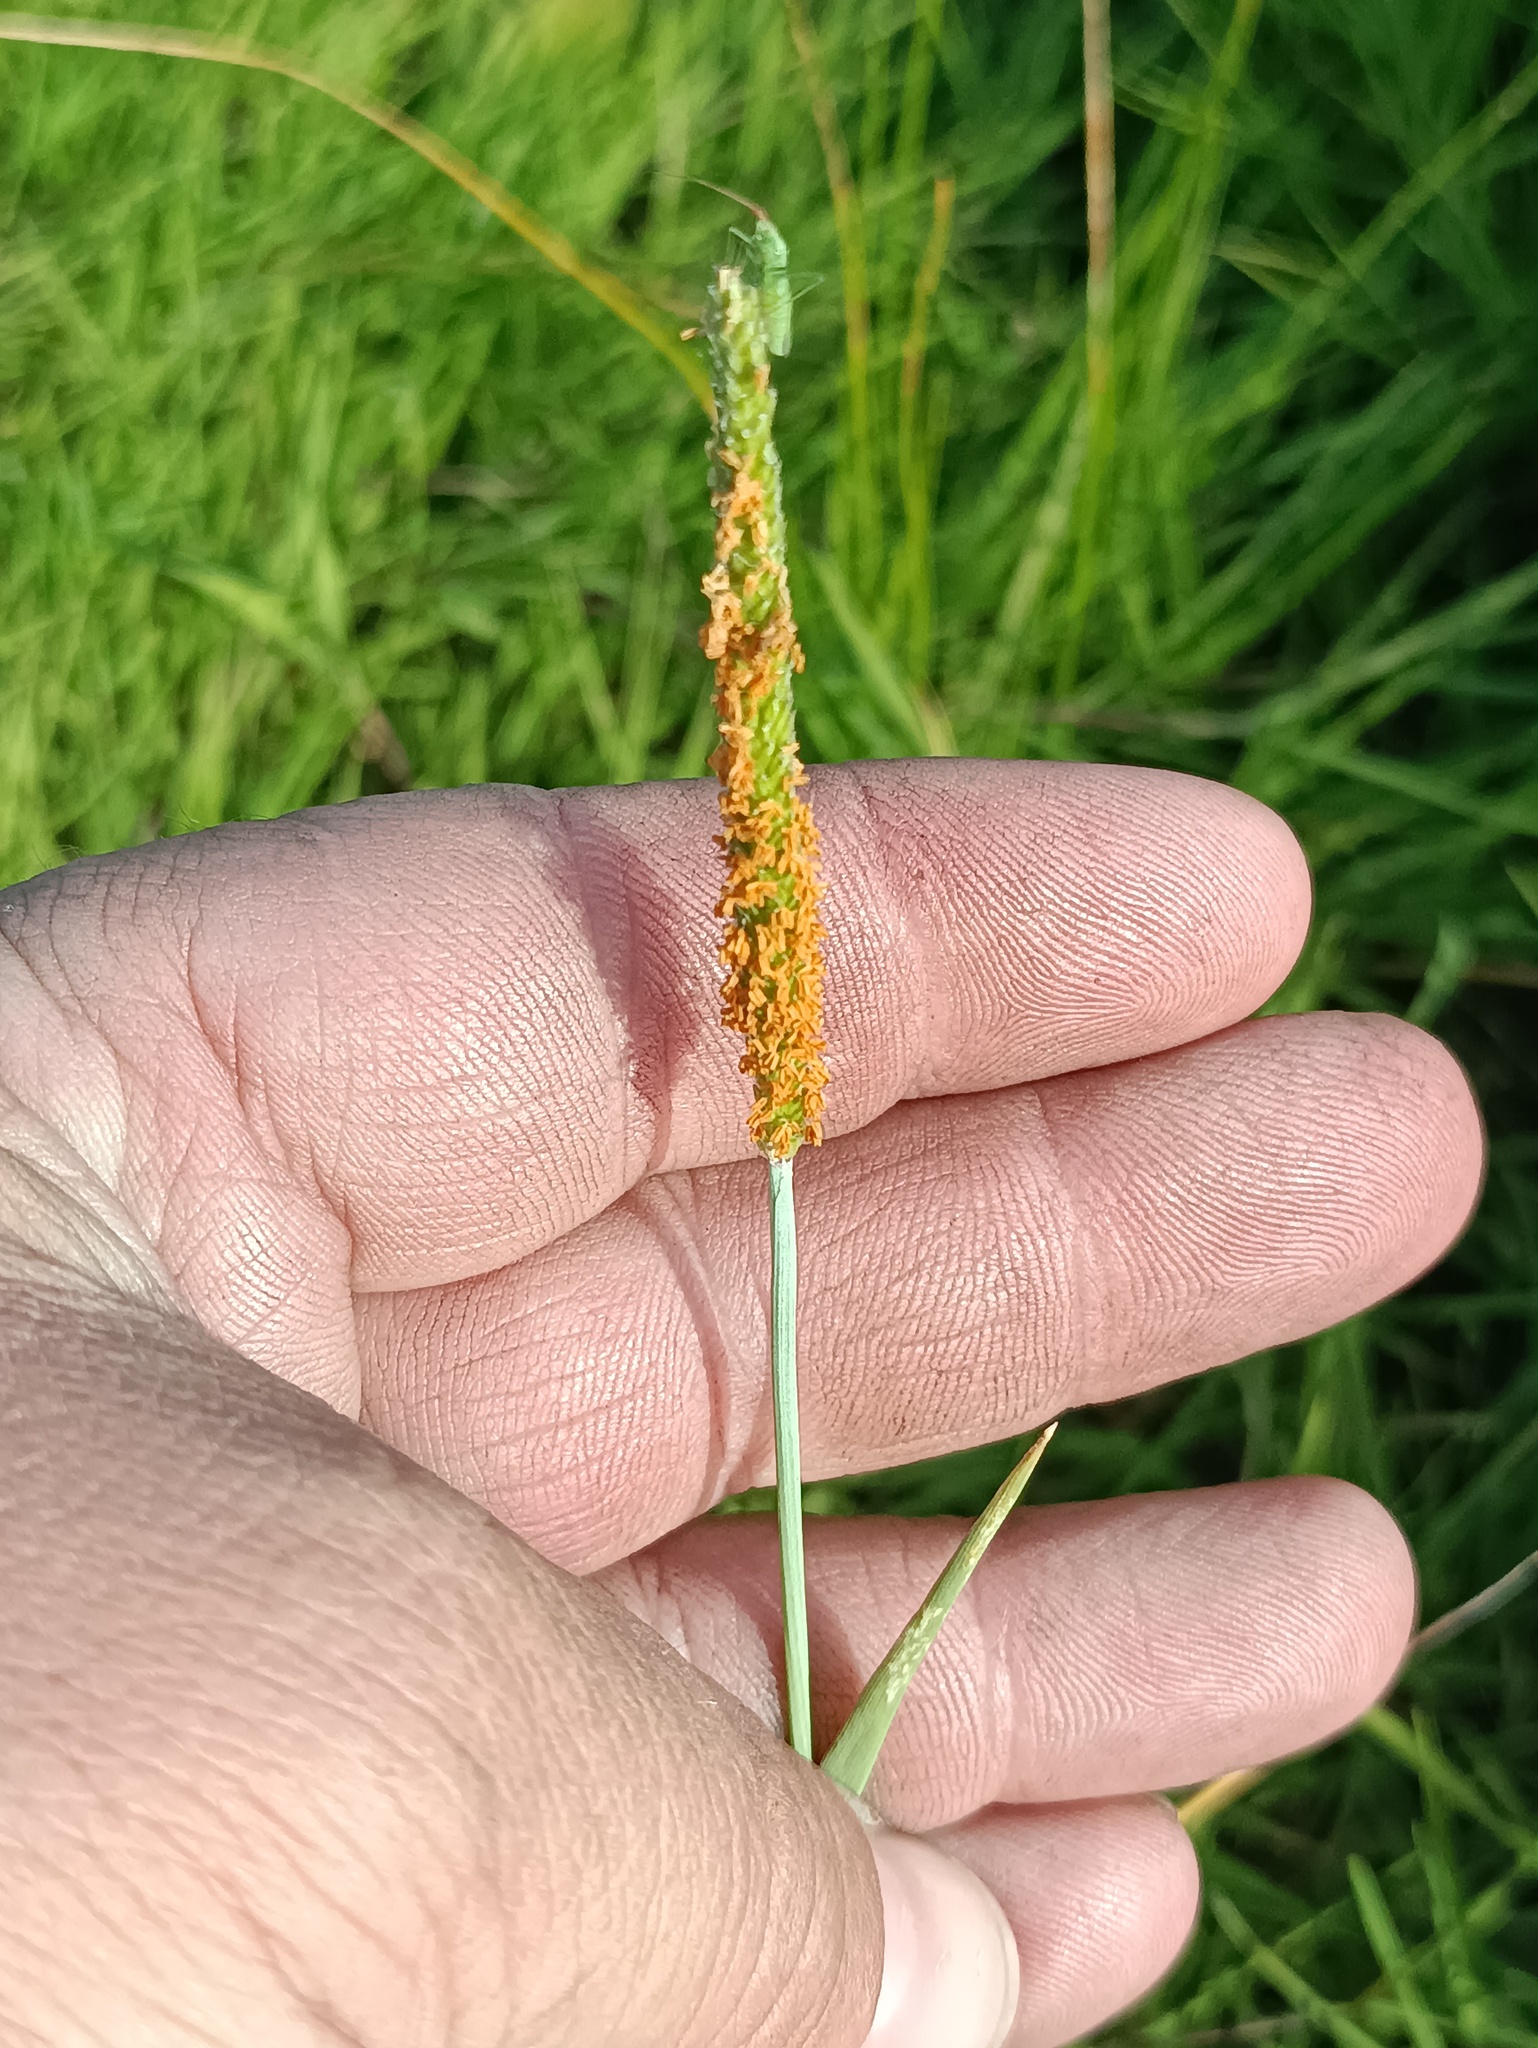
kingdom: Plantae
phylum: Tracheophyta
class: Liliopsida
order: Poales
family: Poaceae
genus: Alopecurus
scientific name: Alopecurus aequalis
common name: Orange foxtail
